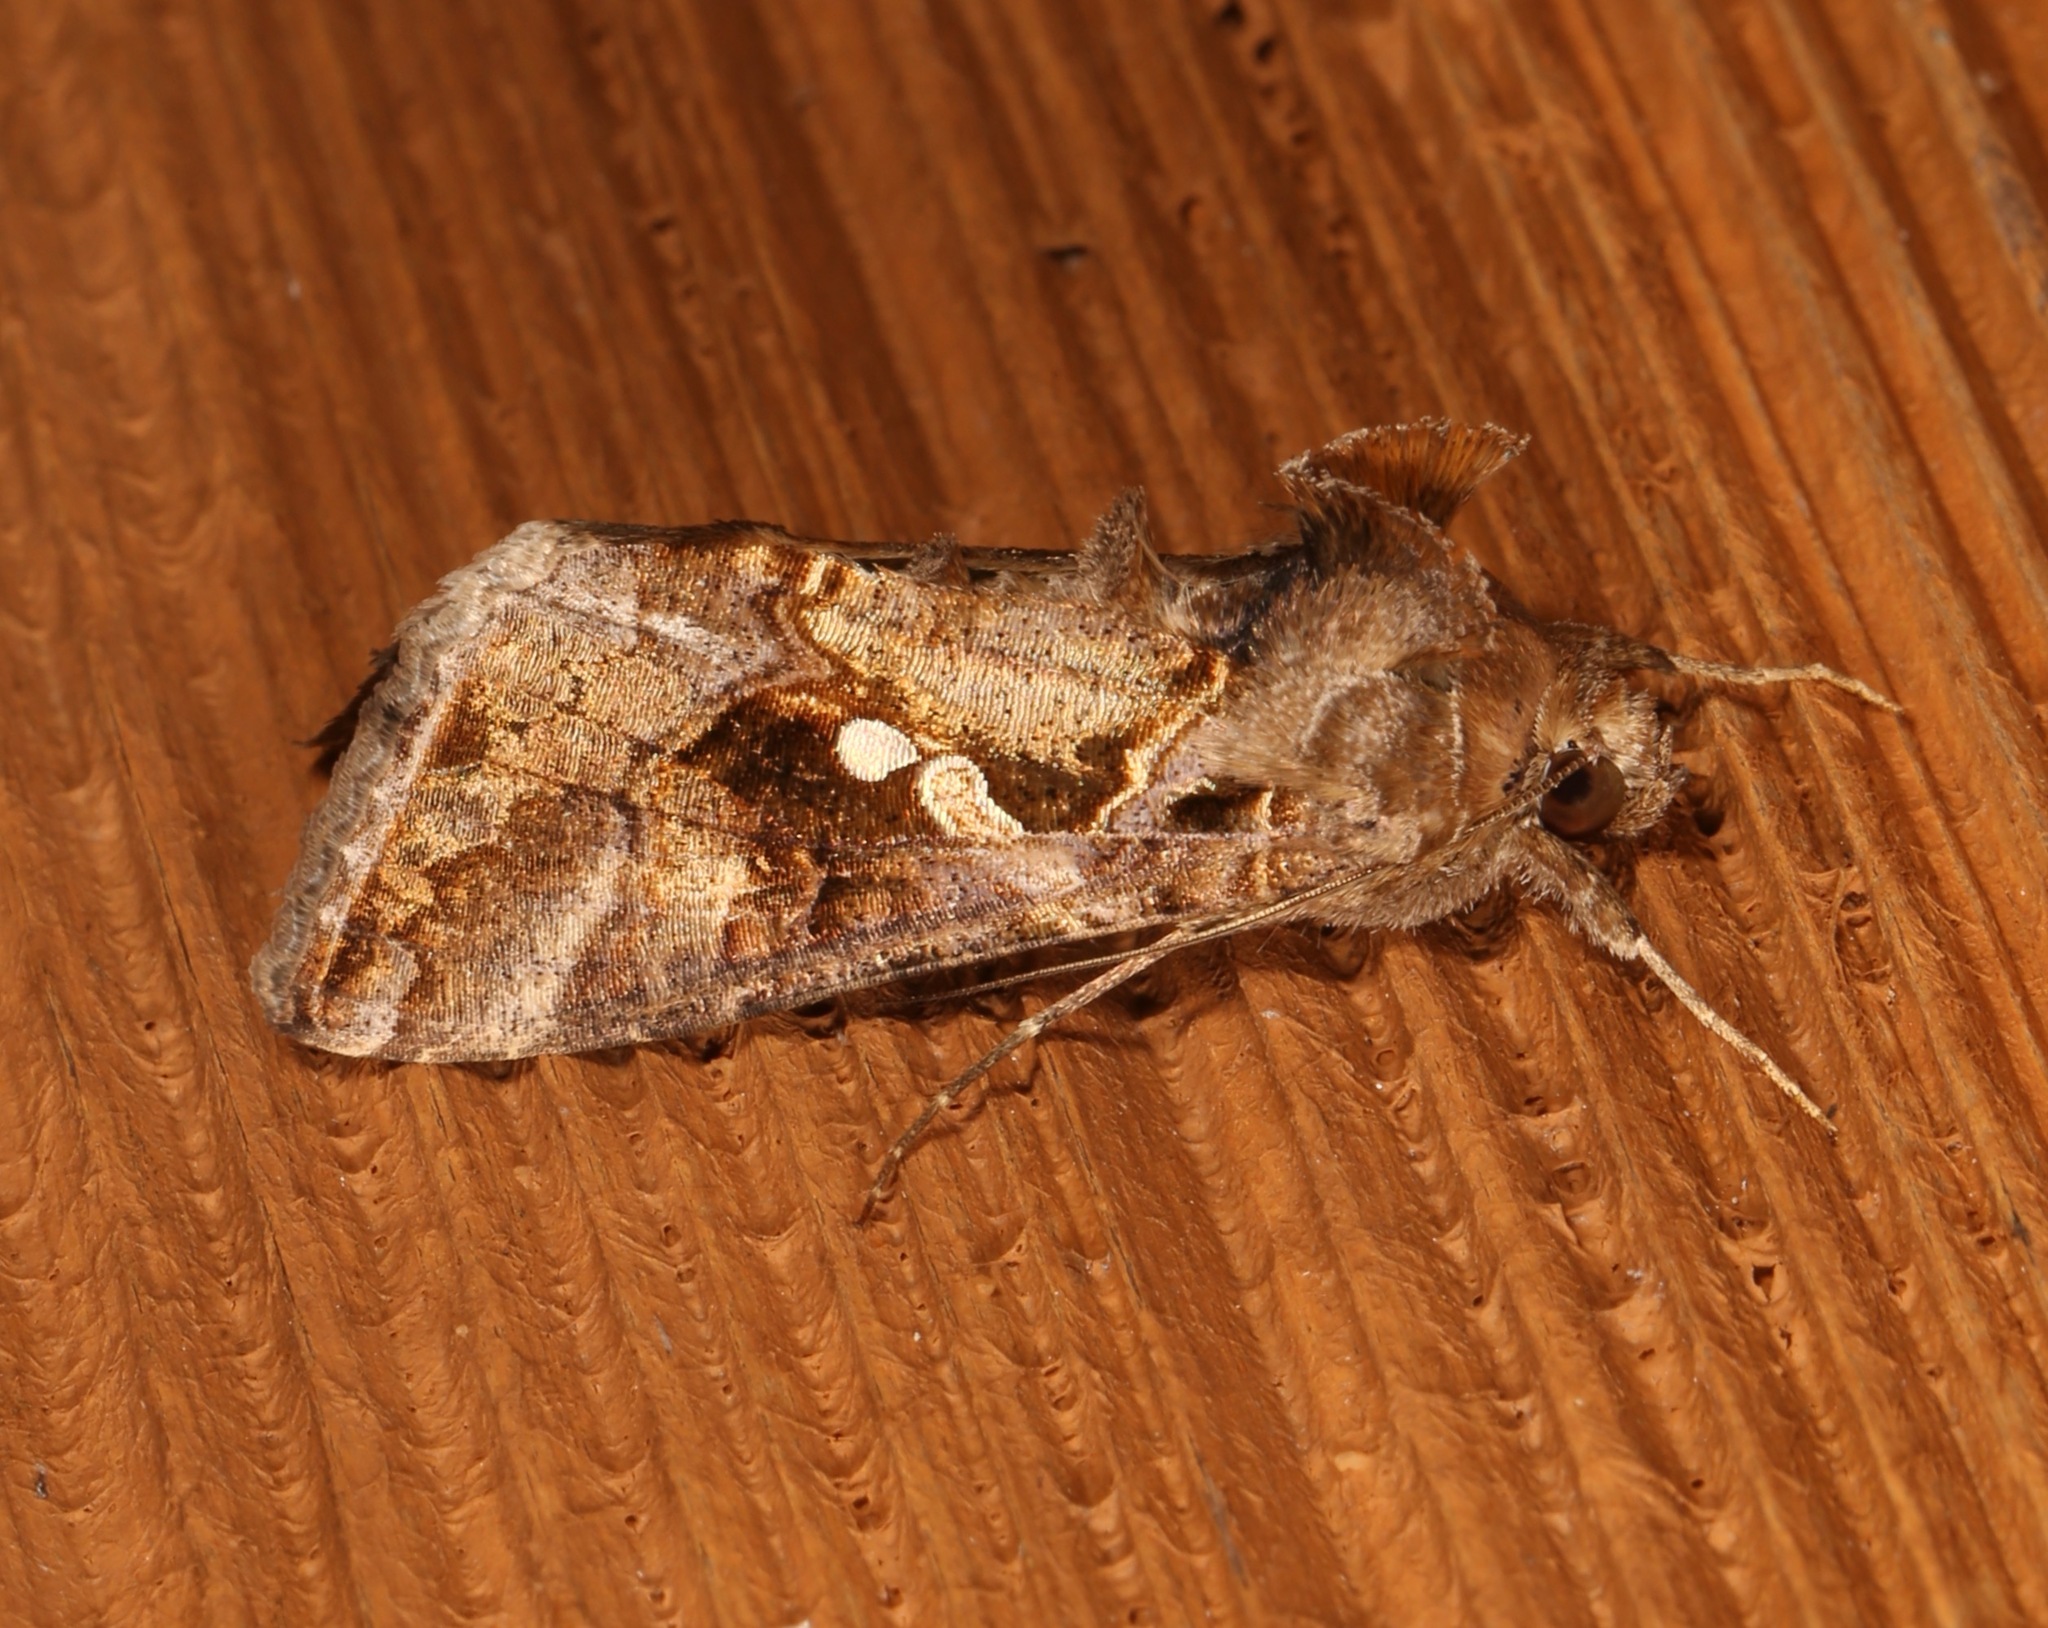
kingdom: Animalia
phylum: Arthropoda
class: Insecta
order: Lepidoptera
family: Noctuidae
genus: Chrysodeixis
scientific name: Chrysodeixis includens
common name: Cutworm moth
